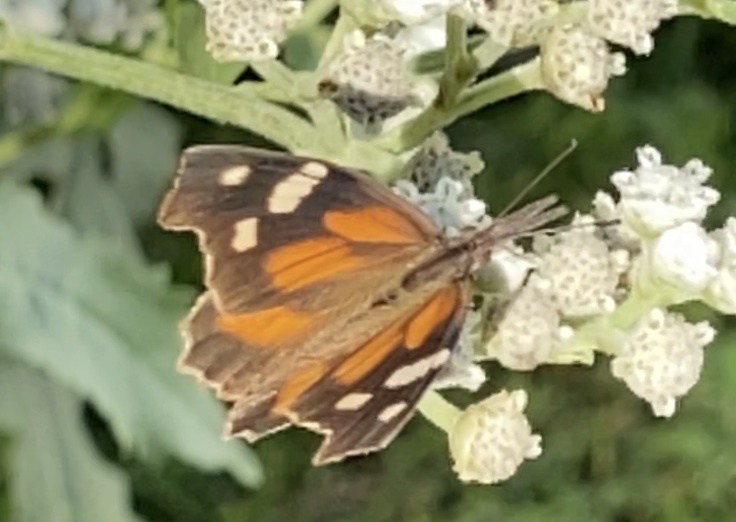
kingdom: Animalia
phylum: Arthropoda
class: Insecta
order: Lepidoptera
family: Nymphalidae
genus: Libytheana
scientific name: Libytheana carinenta
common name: American snout
